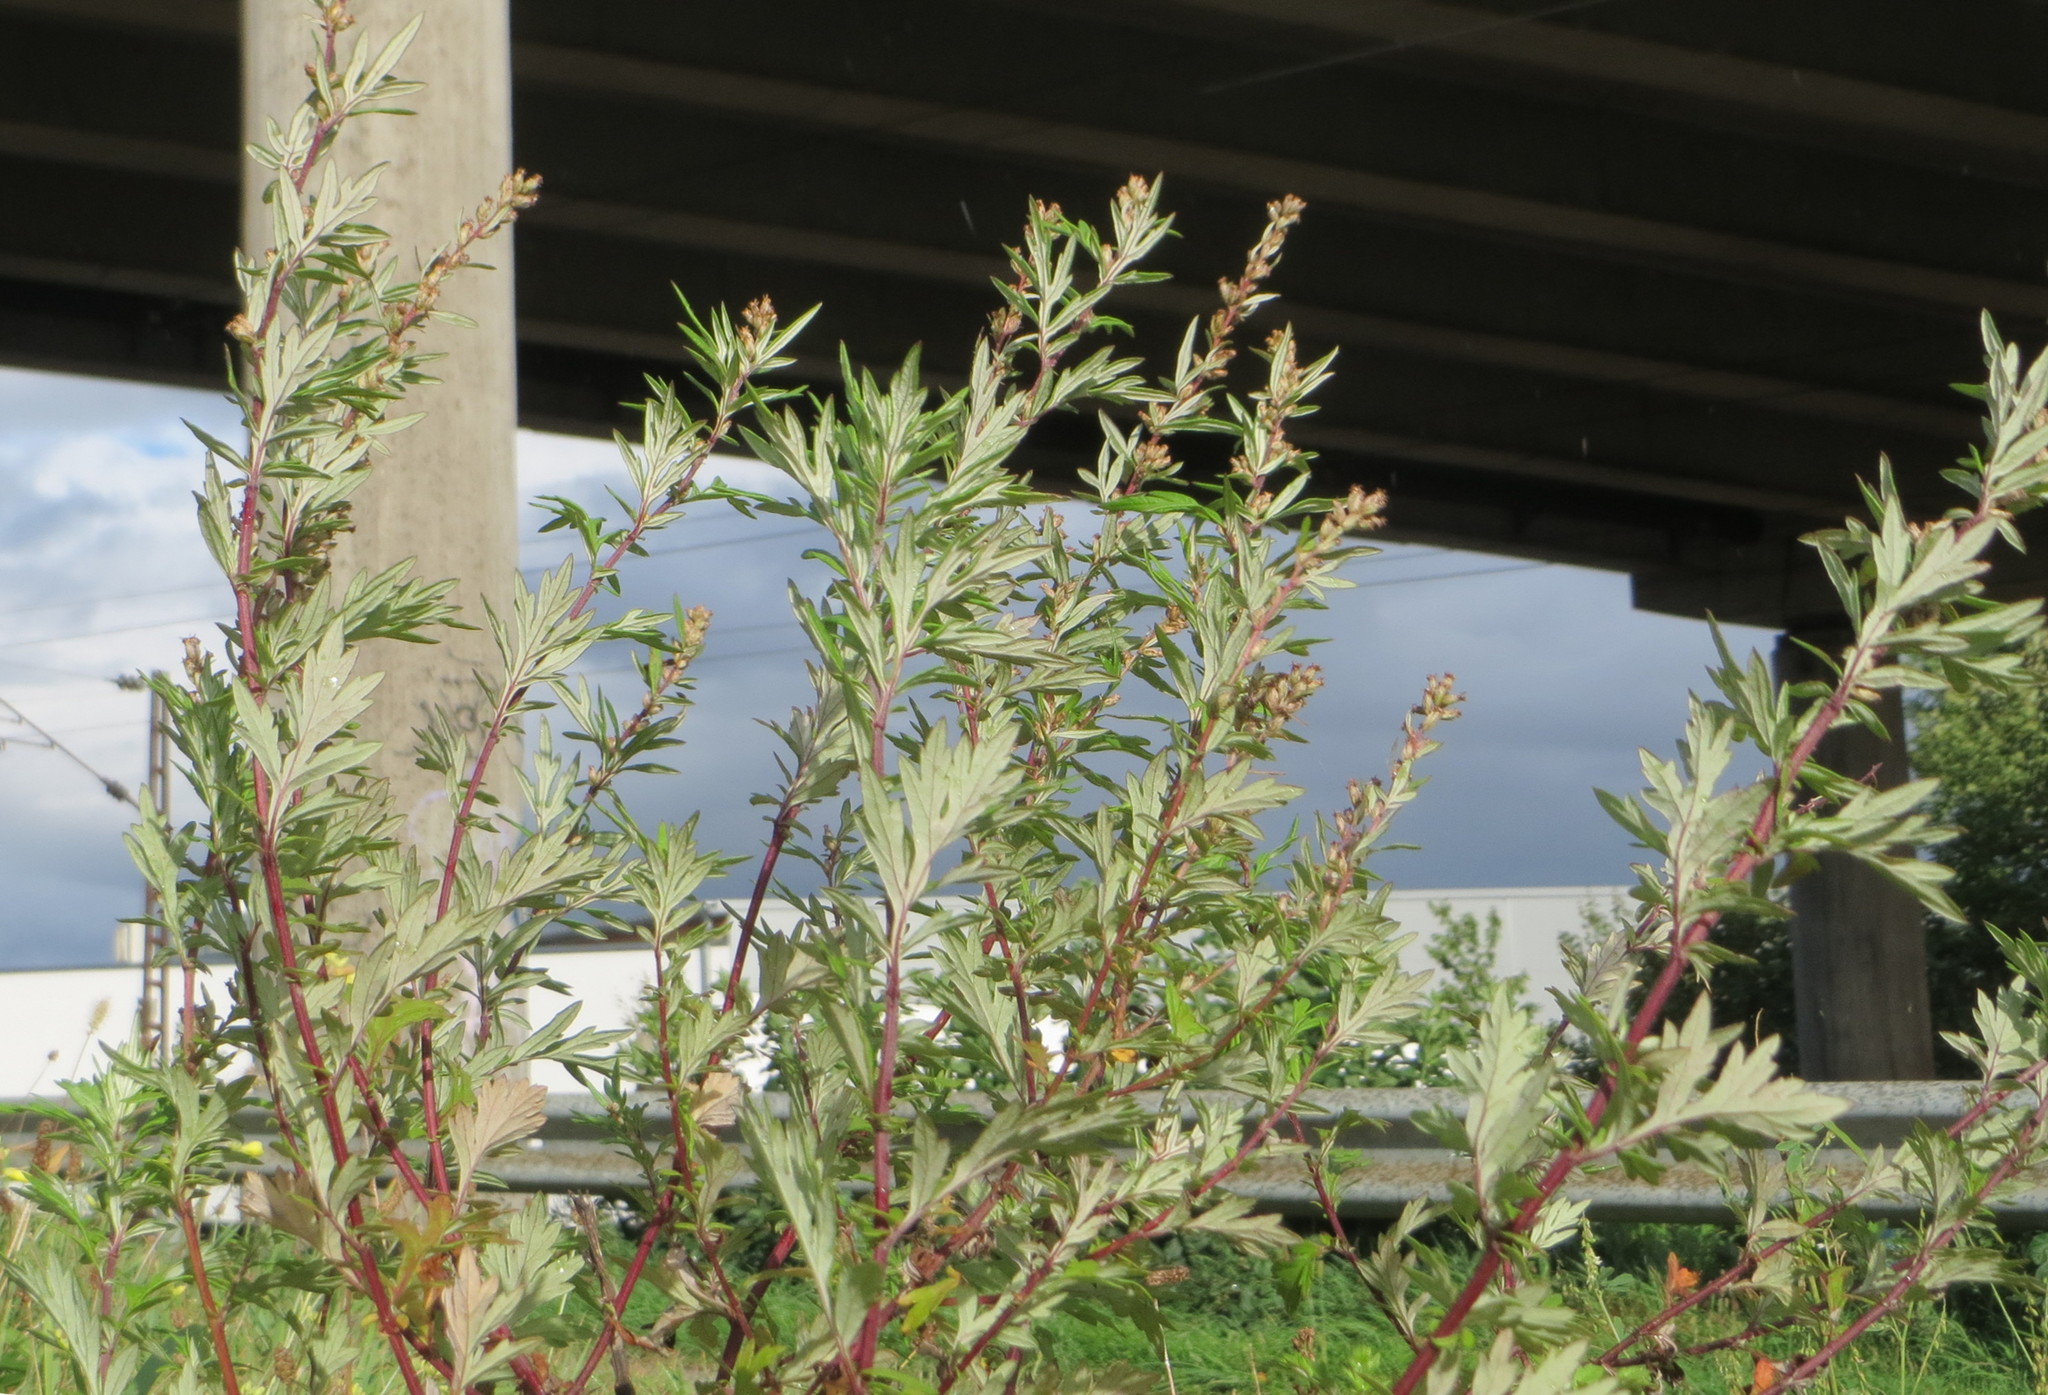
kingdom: Plantae
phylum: Tracheophyta
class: Magnoliopsida
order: Asterales
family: Asteraceae
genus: Artemisia
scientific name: Artemisia vulgaris
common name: Mugwort
